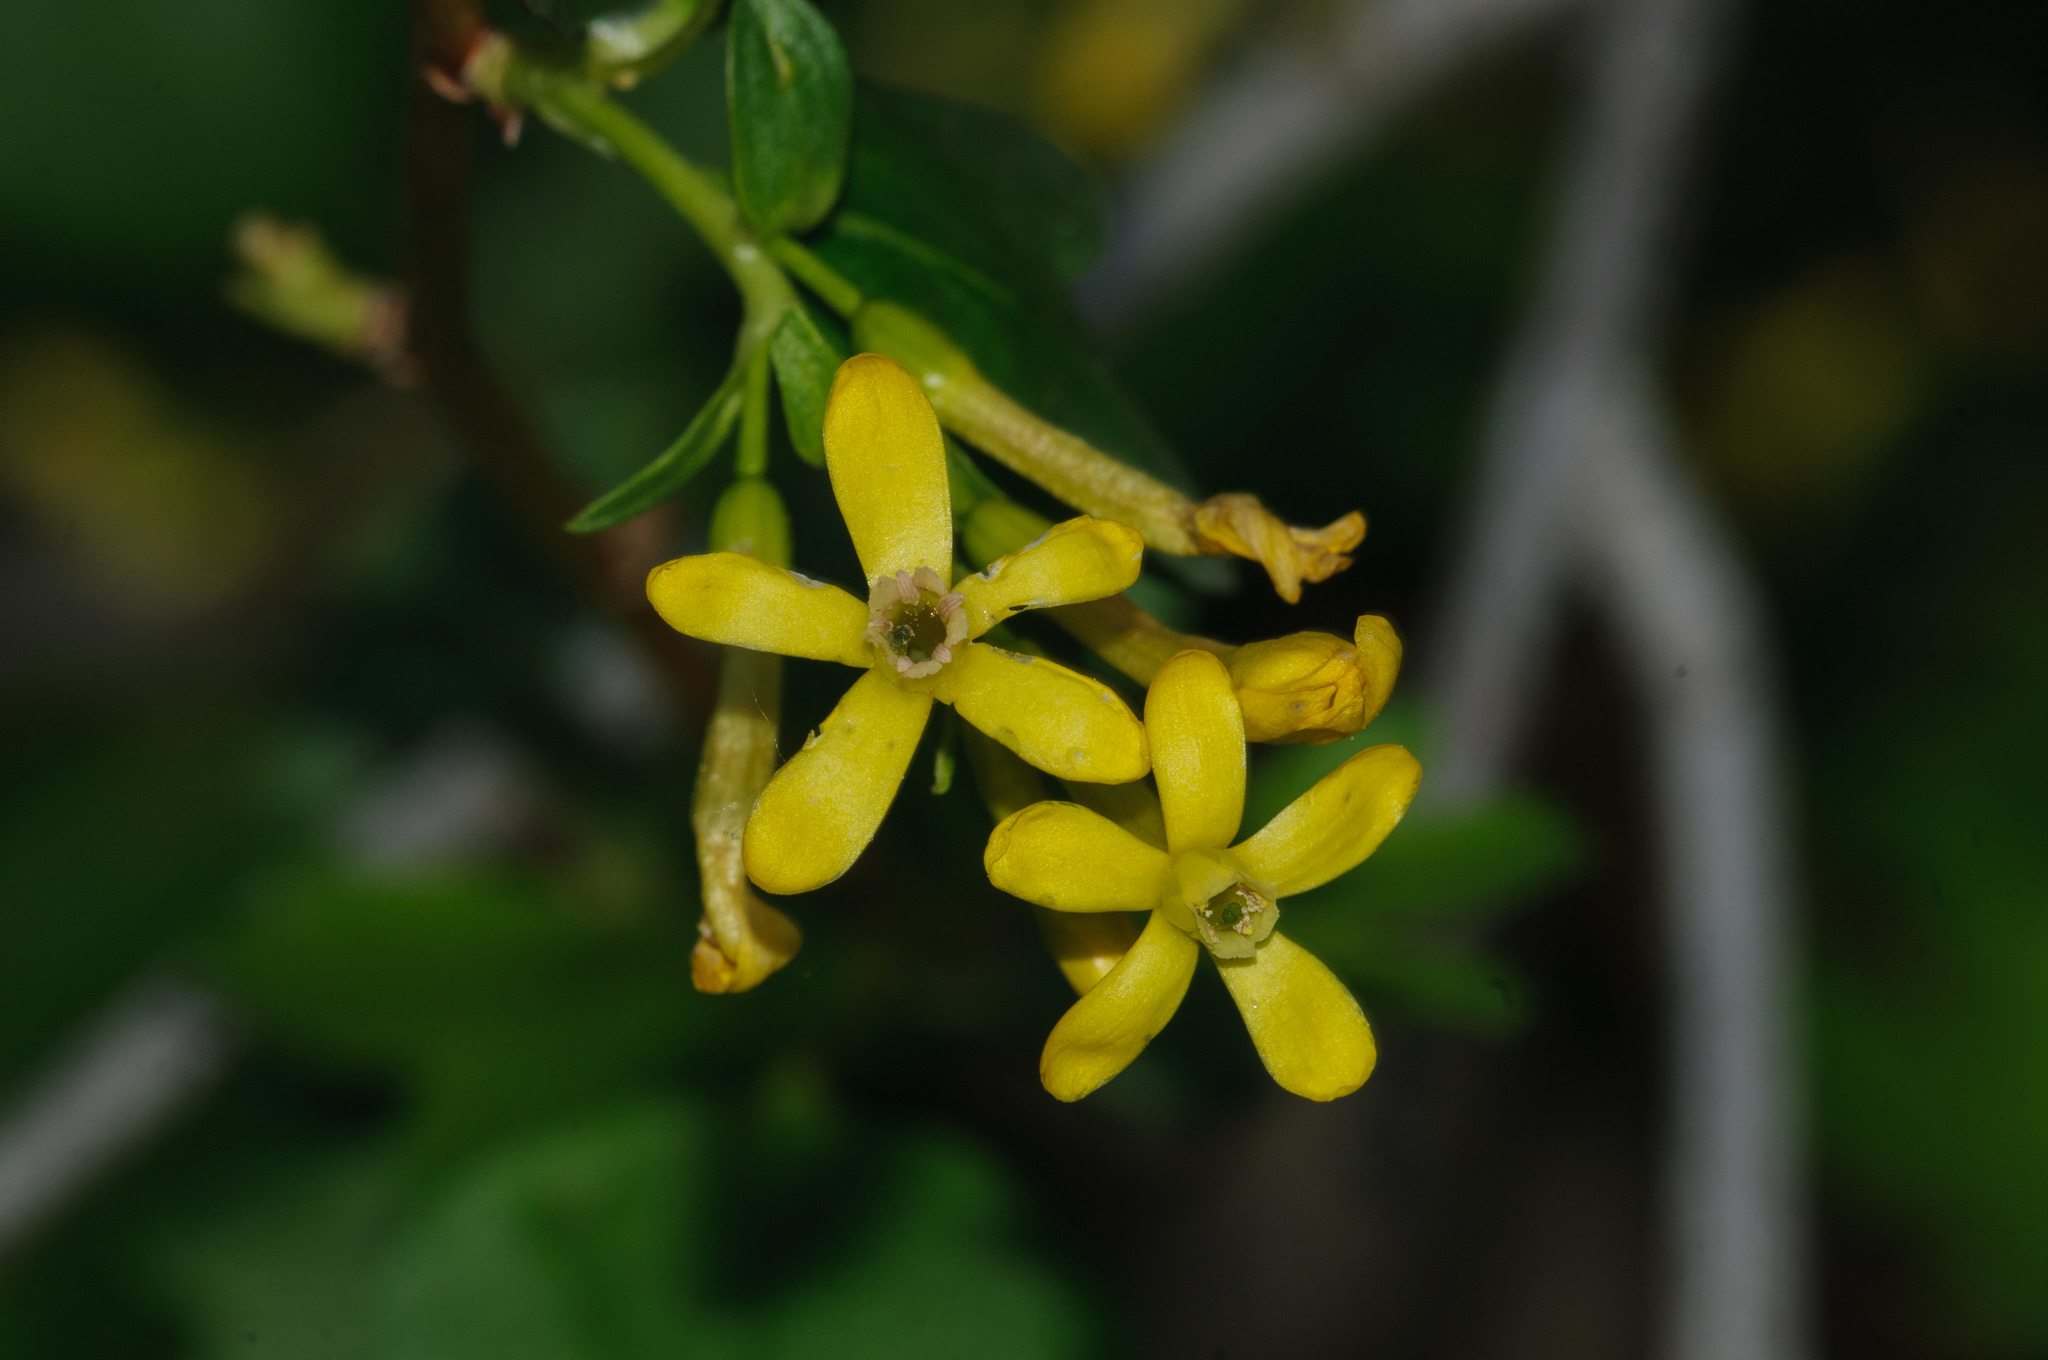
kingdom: Plantae
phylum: Tracheophyta
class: Magnoliopsida
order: Saxifragales
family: Grossulariaceae
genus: Ribes
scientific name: Ribes aureum
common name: Golden currant
